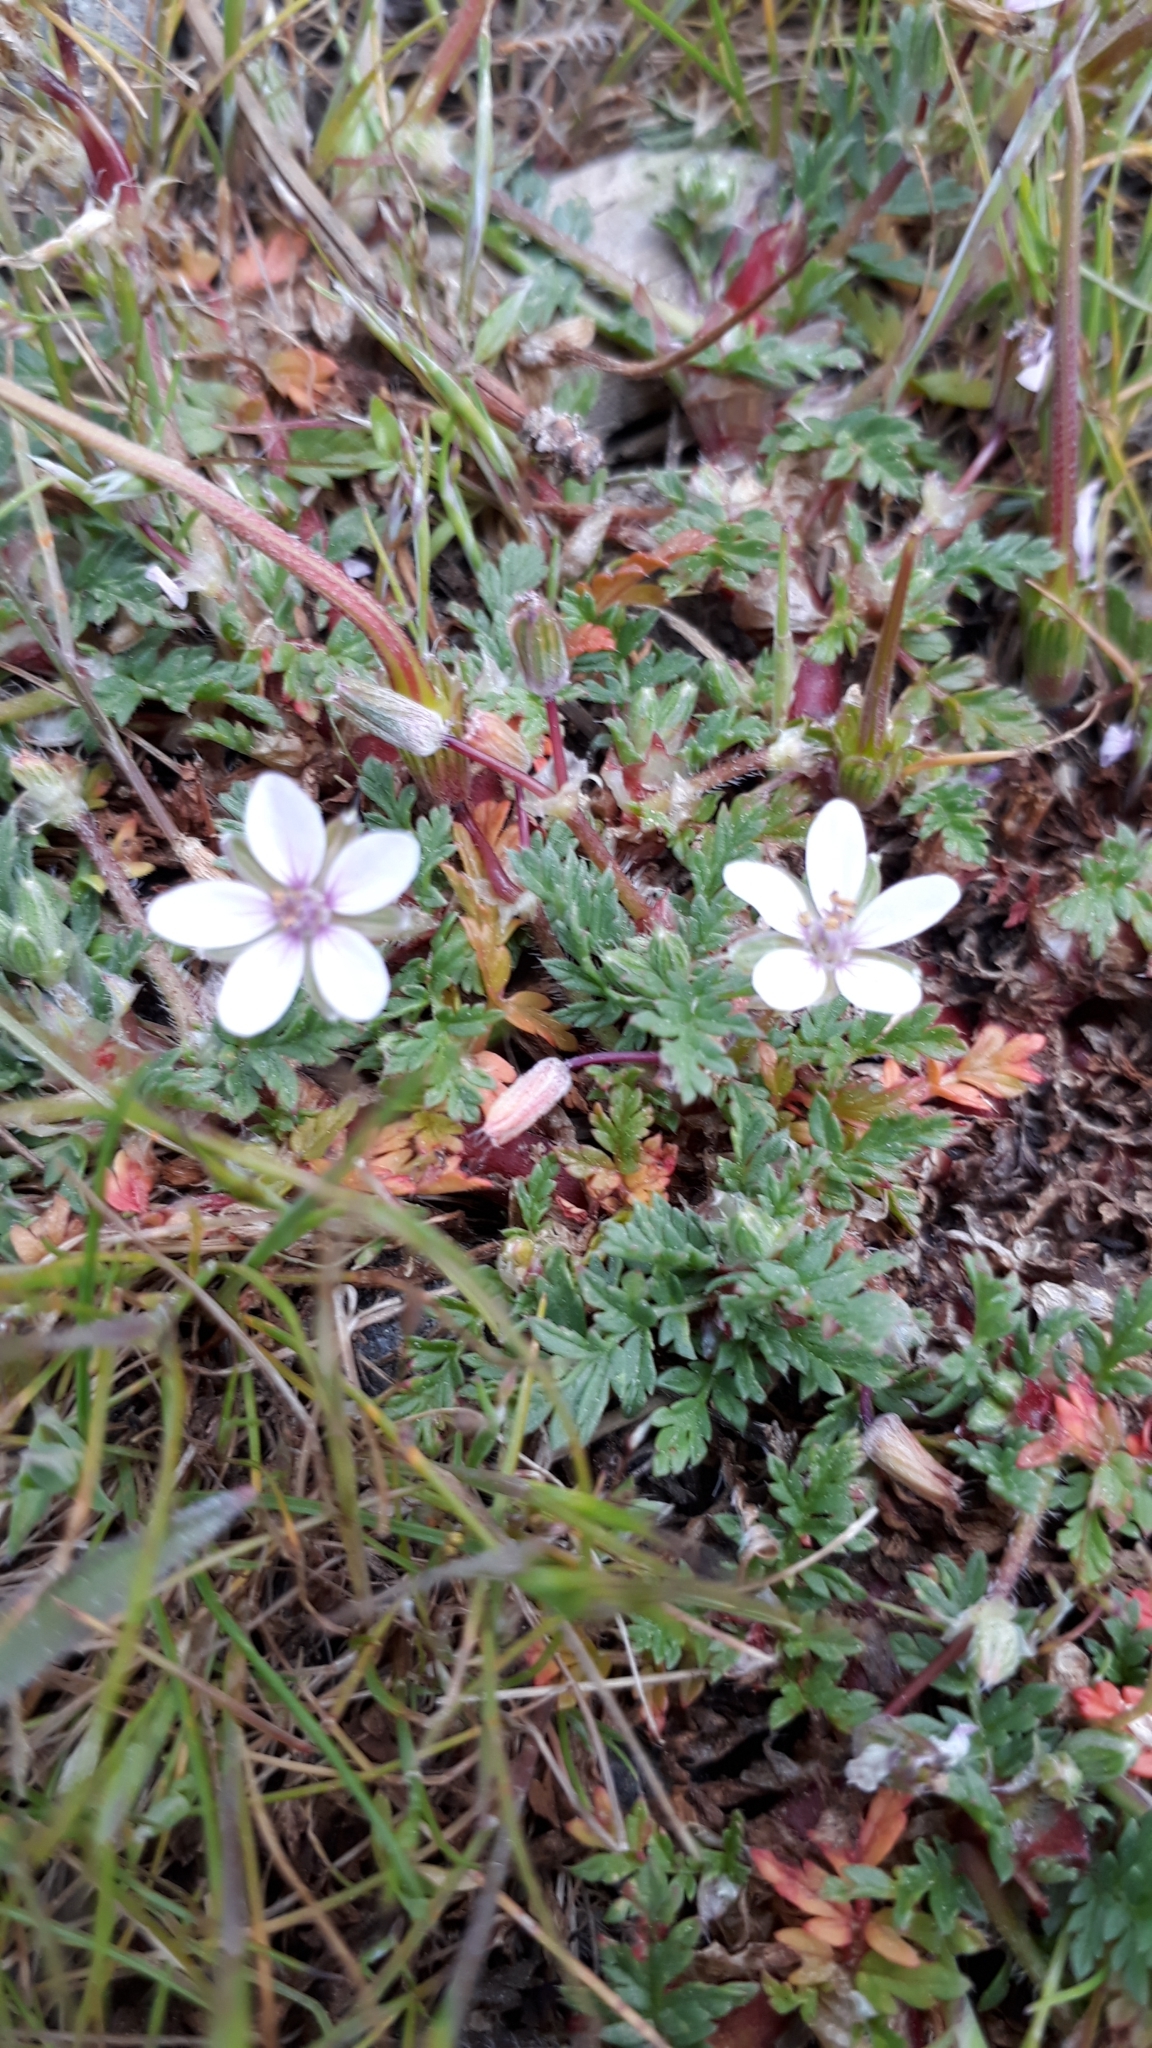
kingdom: Plantae
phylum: Tracheophyta
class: Magnoliopsida
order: Geraniales
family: Geraniaceae
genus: Erodium
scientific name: Erodium cicutarium
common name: Common stork's-bill
